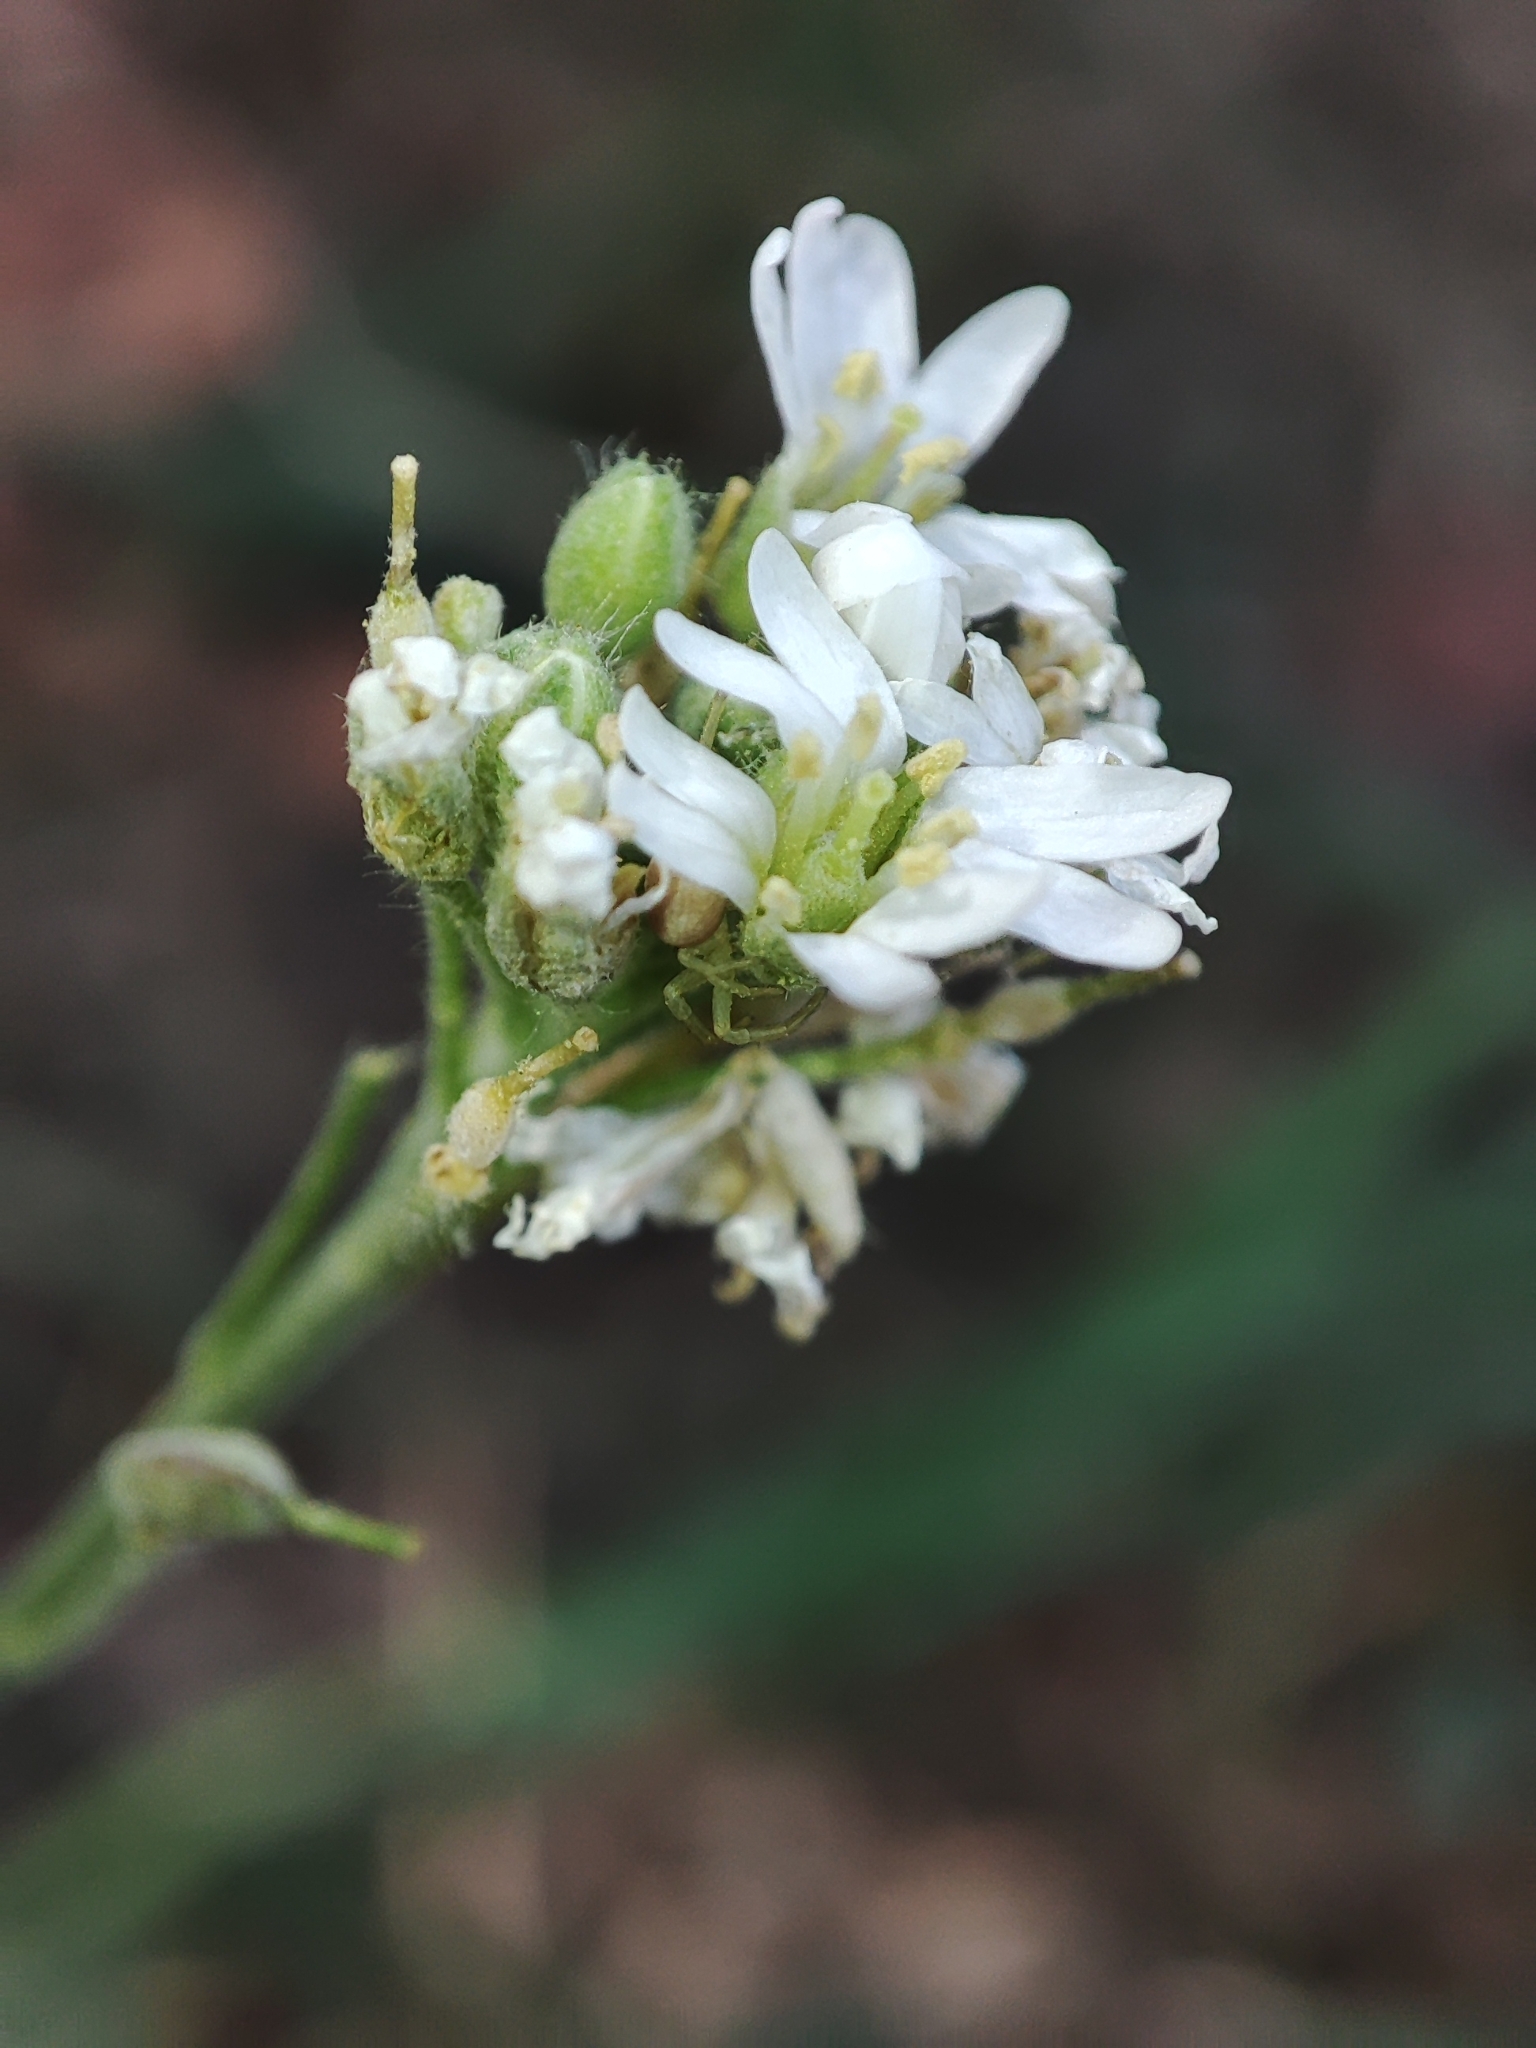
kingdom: Plantae
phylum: Tracheophyta
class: Magnoliopsida
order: Brassicales
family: Brassicaceae
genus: Berteroa
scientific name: Berteroa incana
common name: Hoary alison
